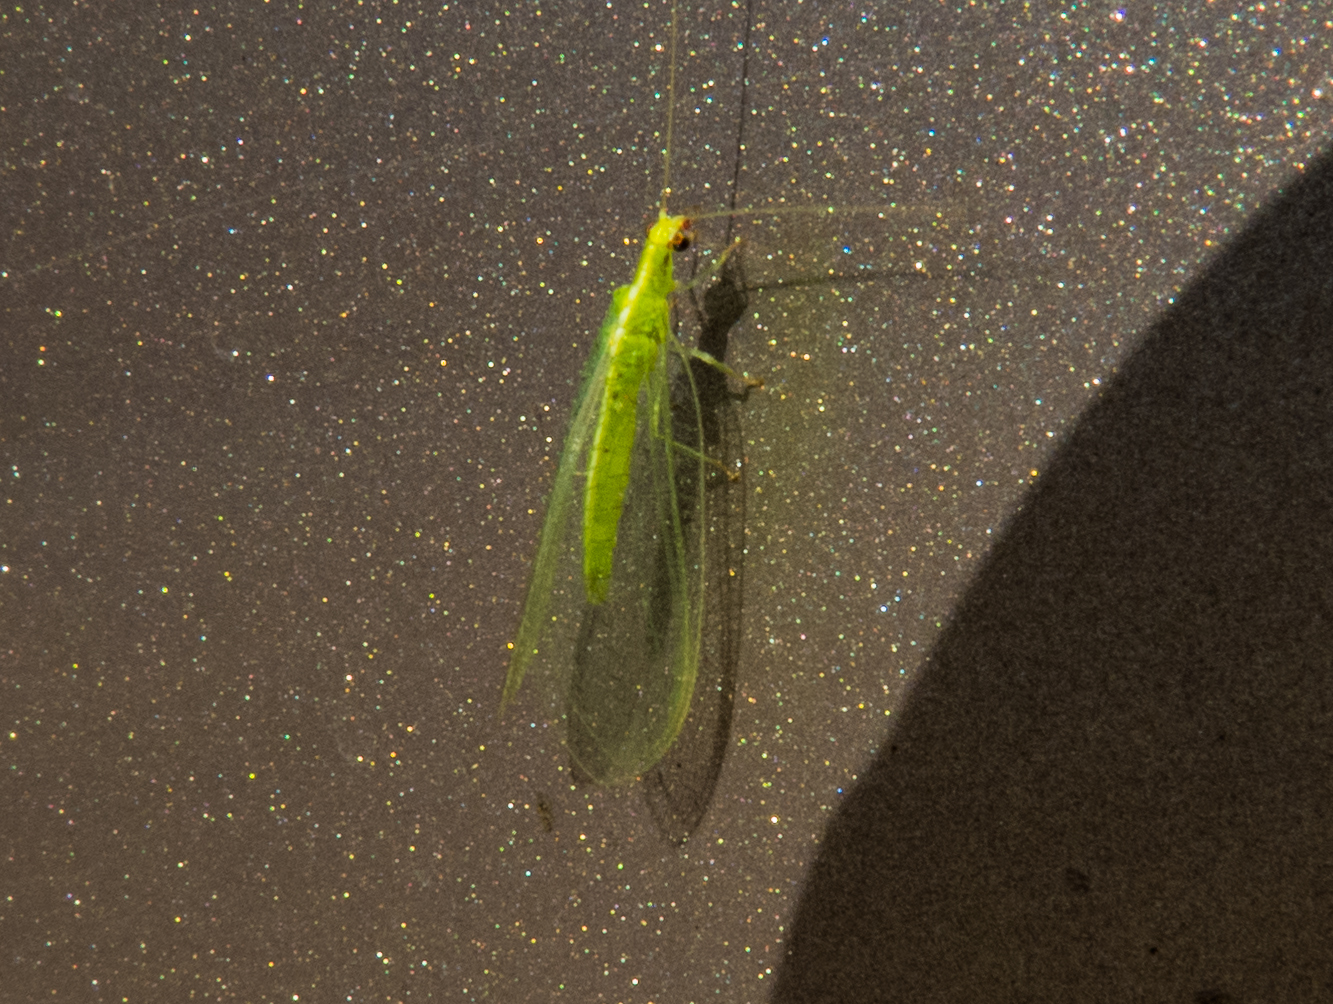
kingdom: Animalia
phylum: Arthropoda
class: Insecta
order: Neuroptera
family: Chrysopidae
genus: Chrysoperla
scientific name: Chrysoperla rufilabris
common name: Red-lipped green lacewing
